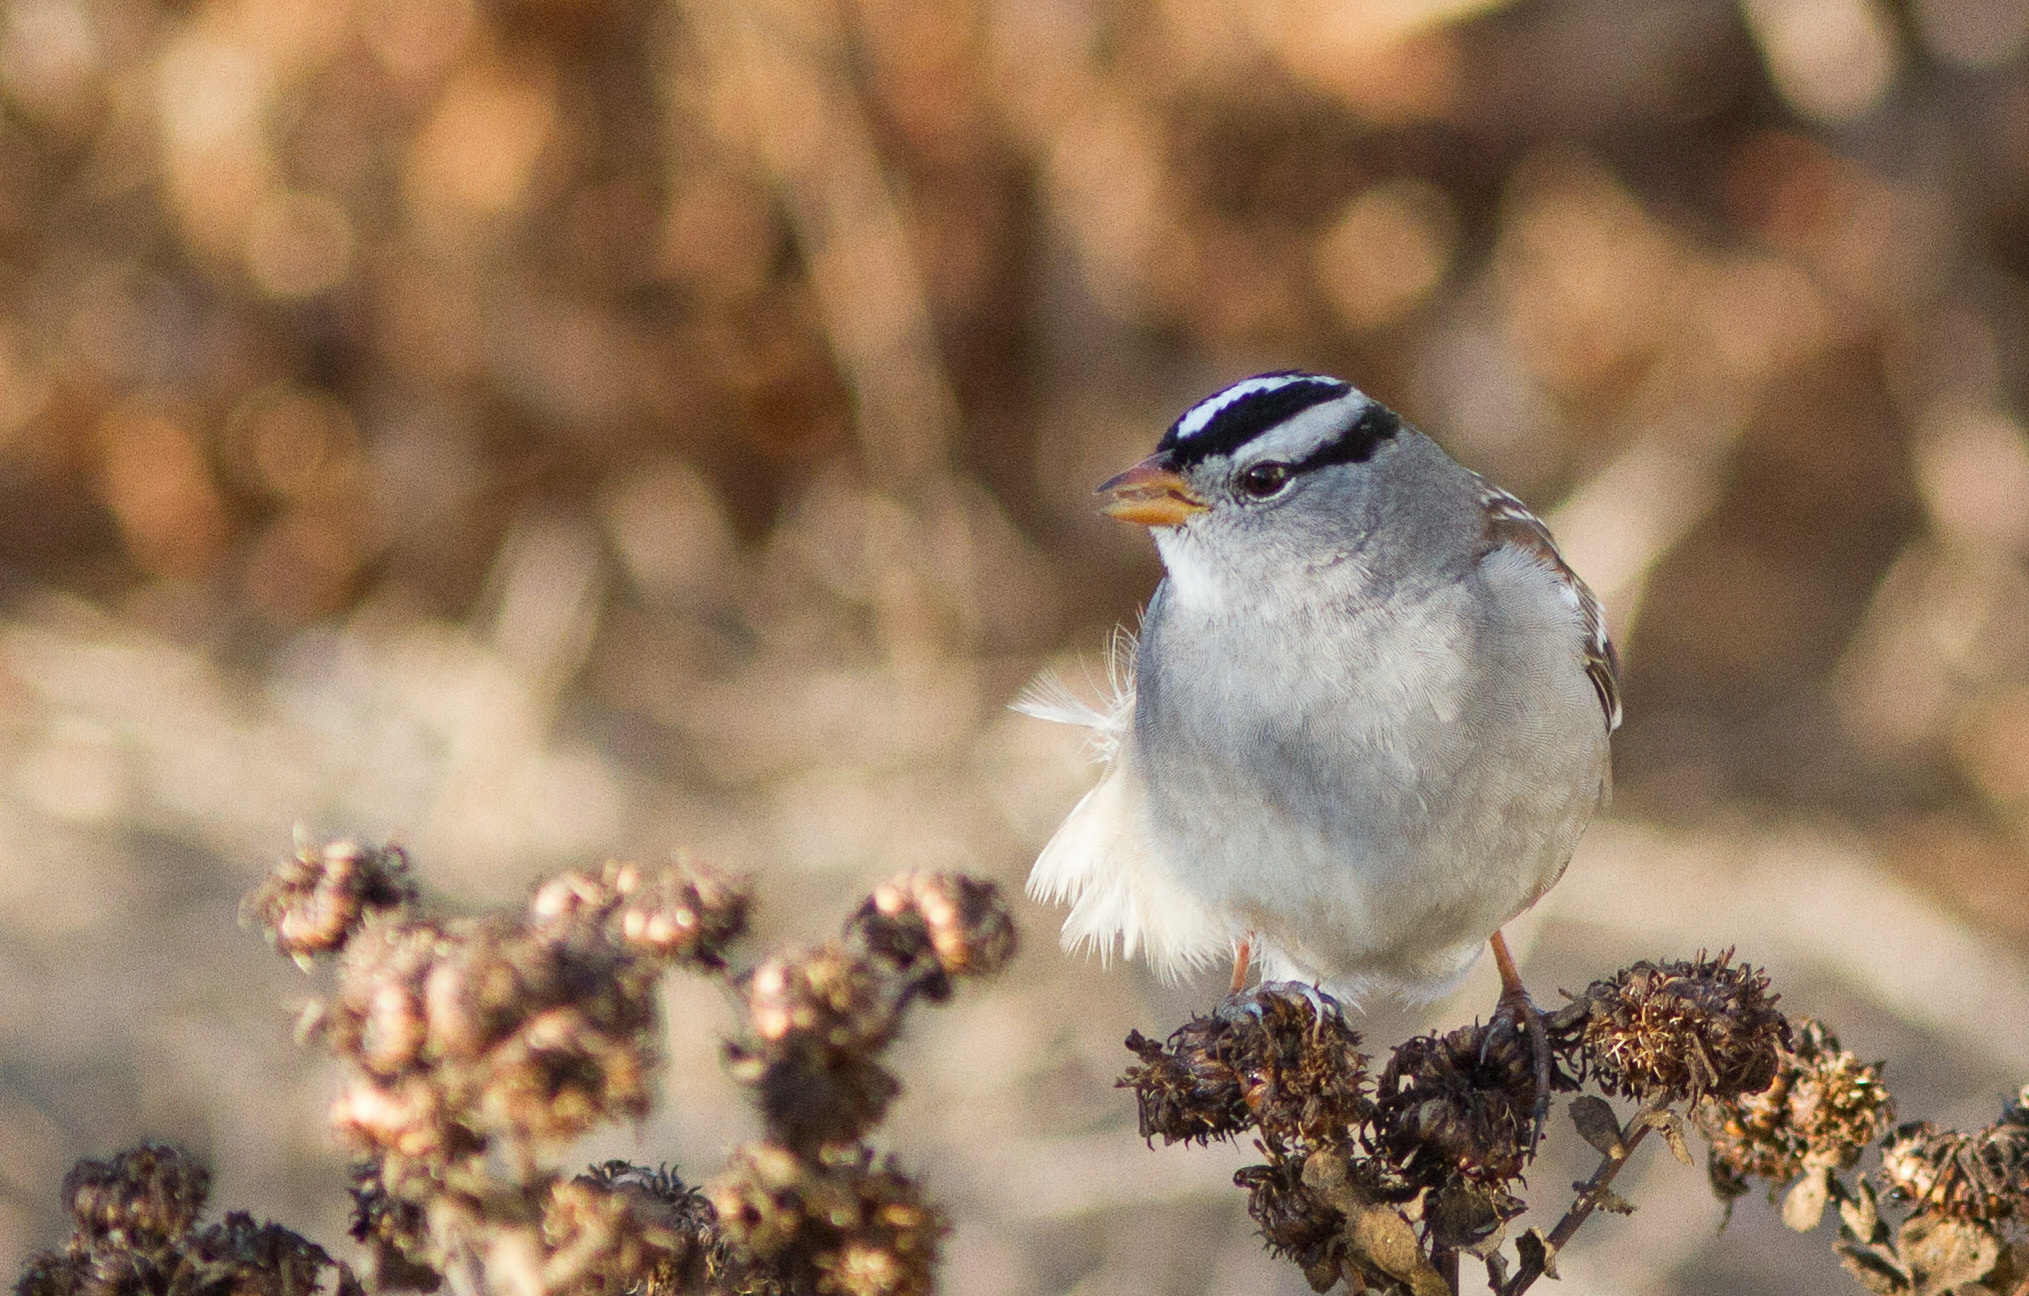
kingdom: Animalia
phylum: Chordata
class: Aves
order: Passeriformes
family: Passerellidae
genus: Zonotrichia
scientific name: Zonotrichia leucophrys
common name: White-crowned sparrow
